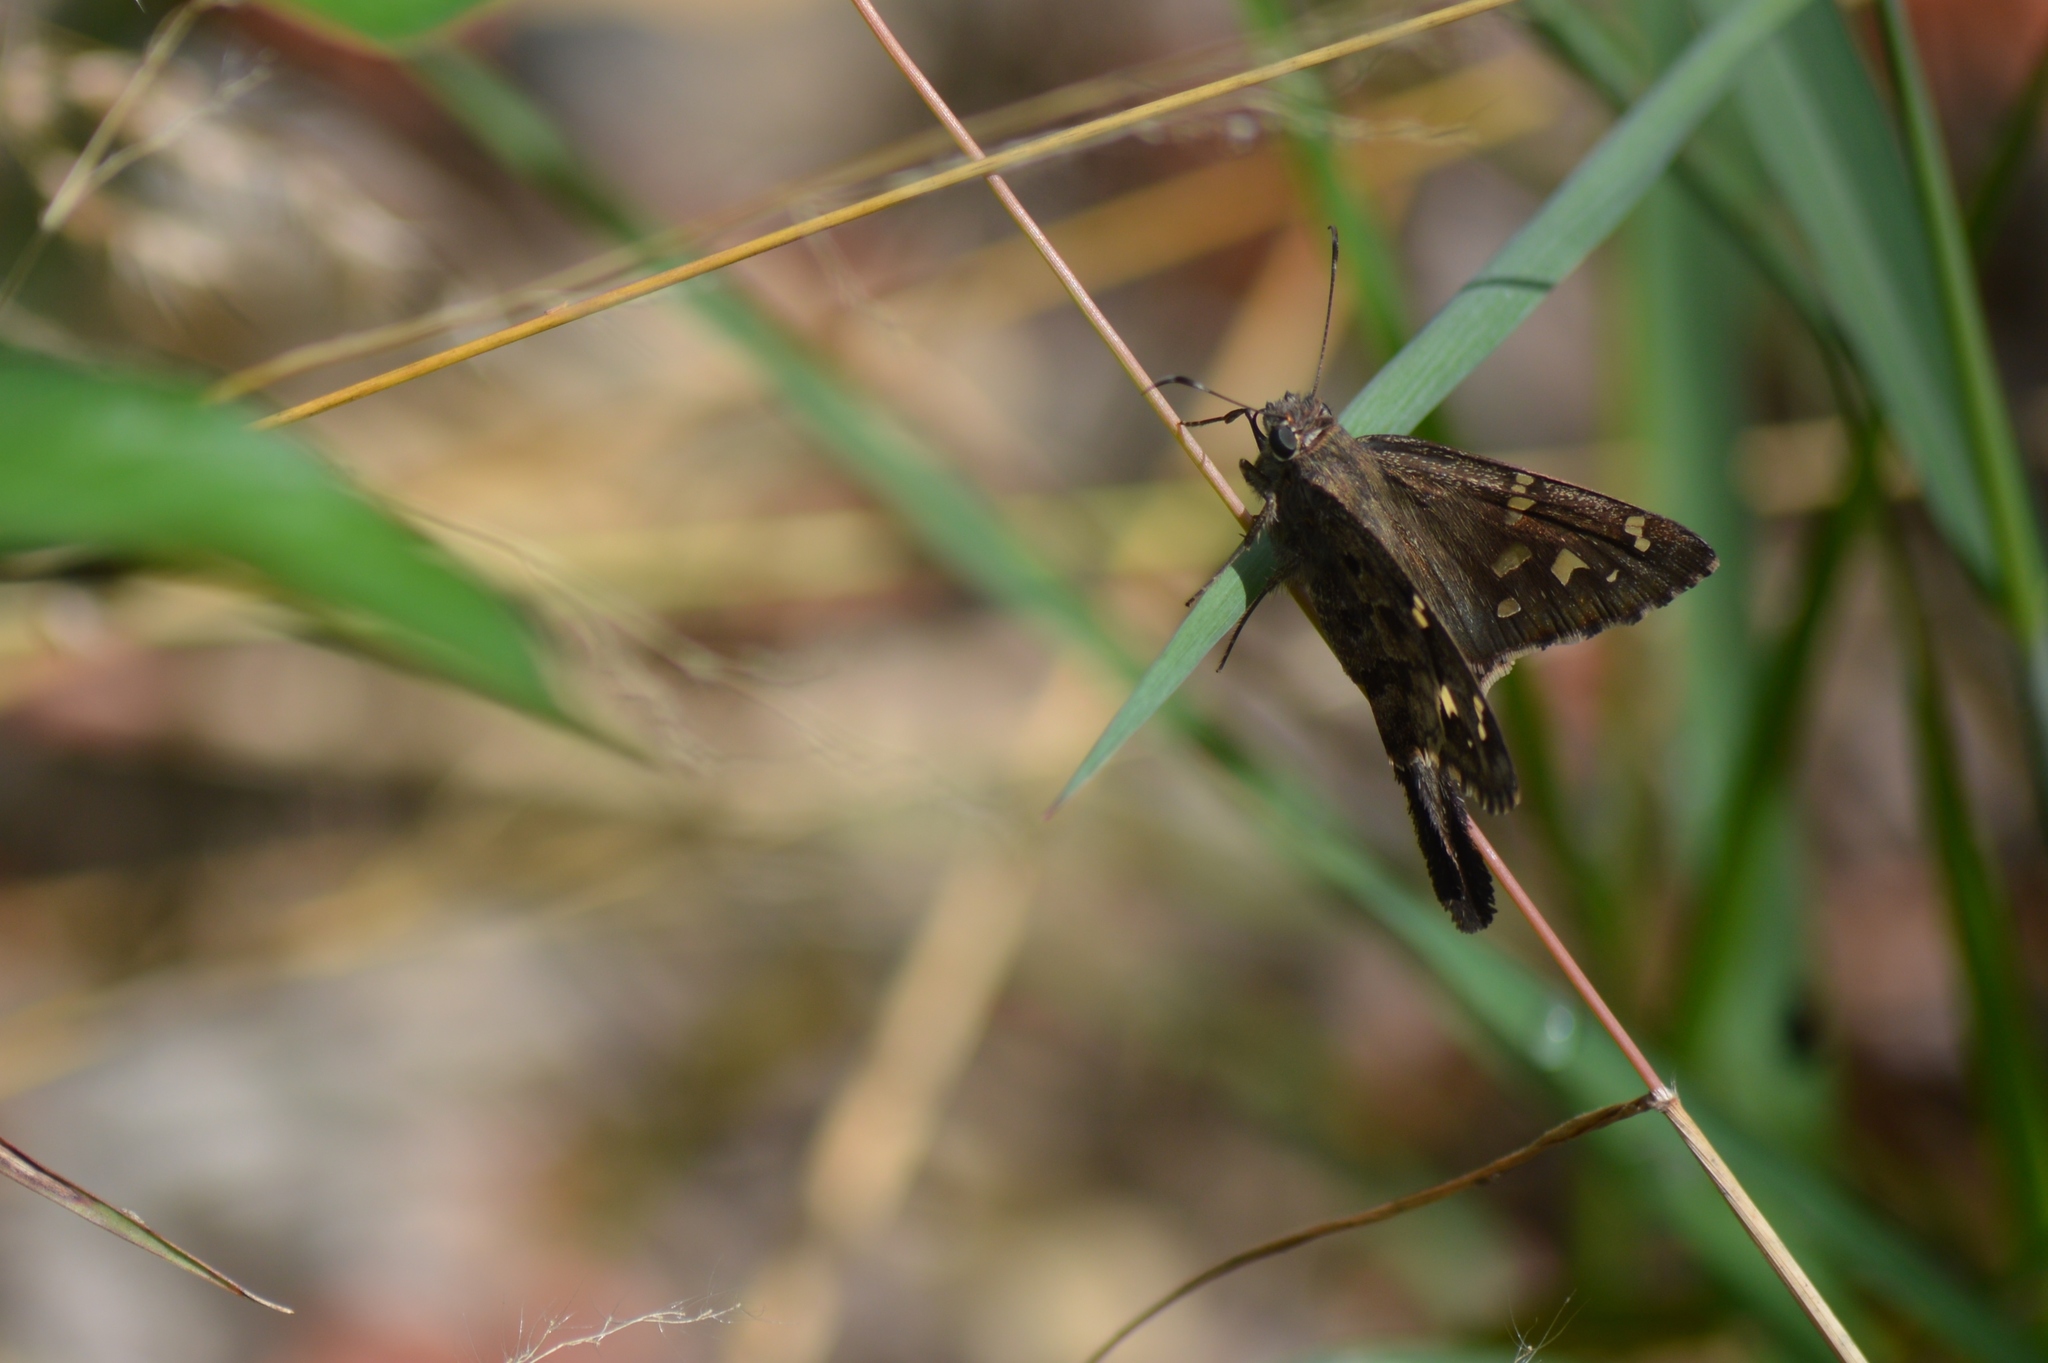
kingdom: Animalia
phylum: Arthropoda
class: Insecta
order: Lepidoptera
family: Hesperiidae
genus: Thorybes
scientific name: Thorybes
